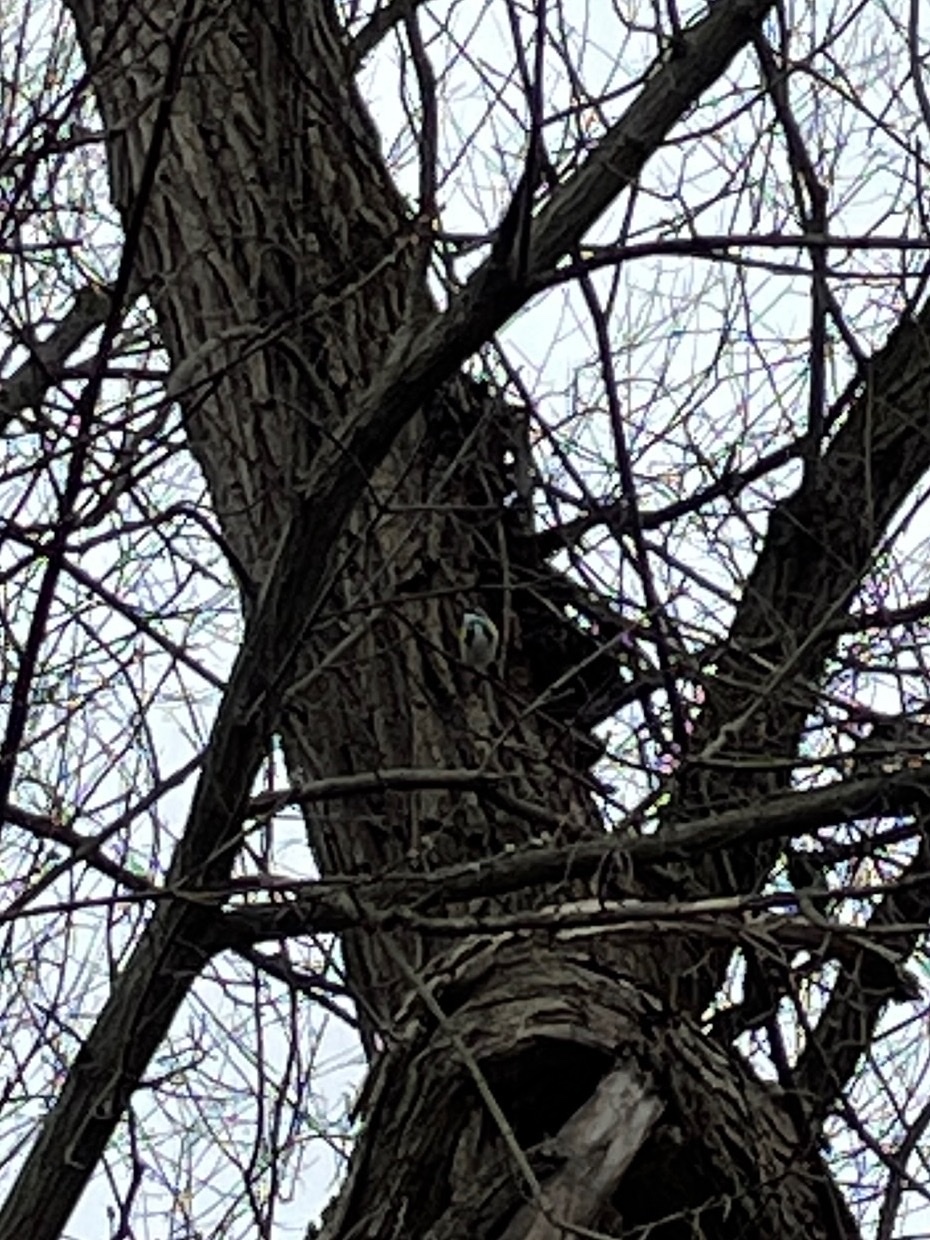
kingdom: Animalia
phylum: Chordata
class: Aves
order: Passeriformes
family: Parulidae
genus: Setophaga
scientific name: Setophaga coronata
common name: Myrtle warbler
